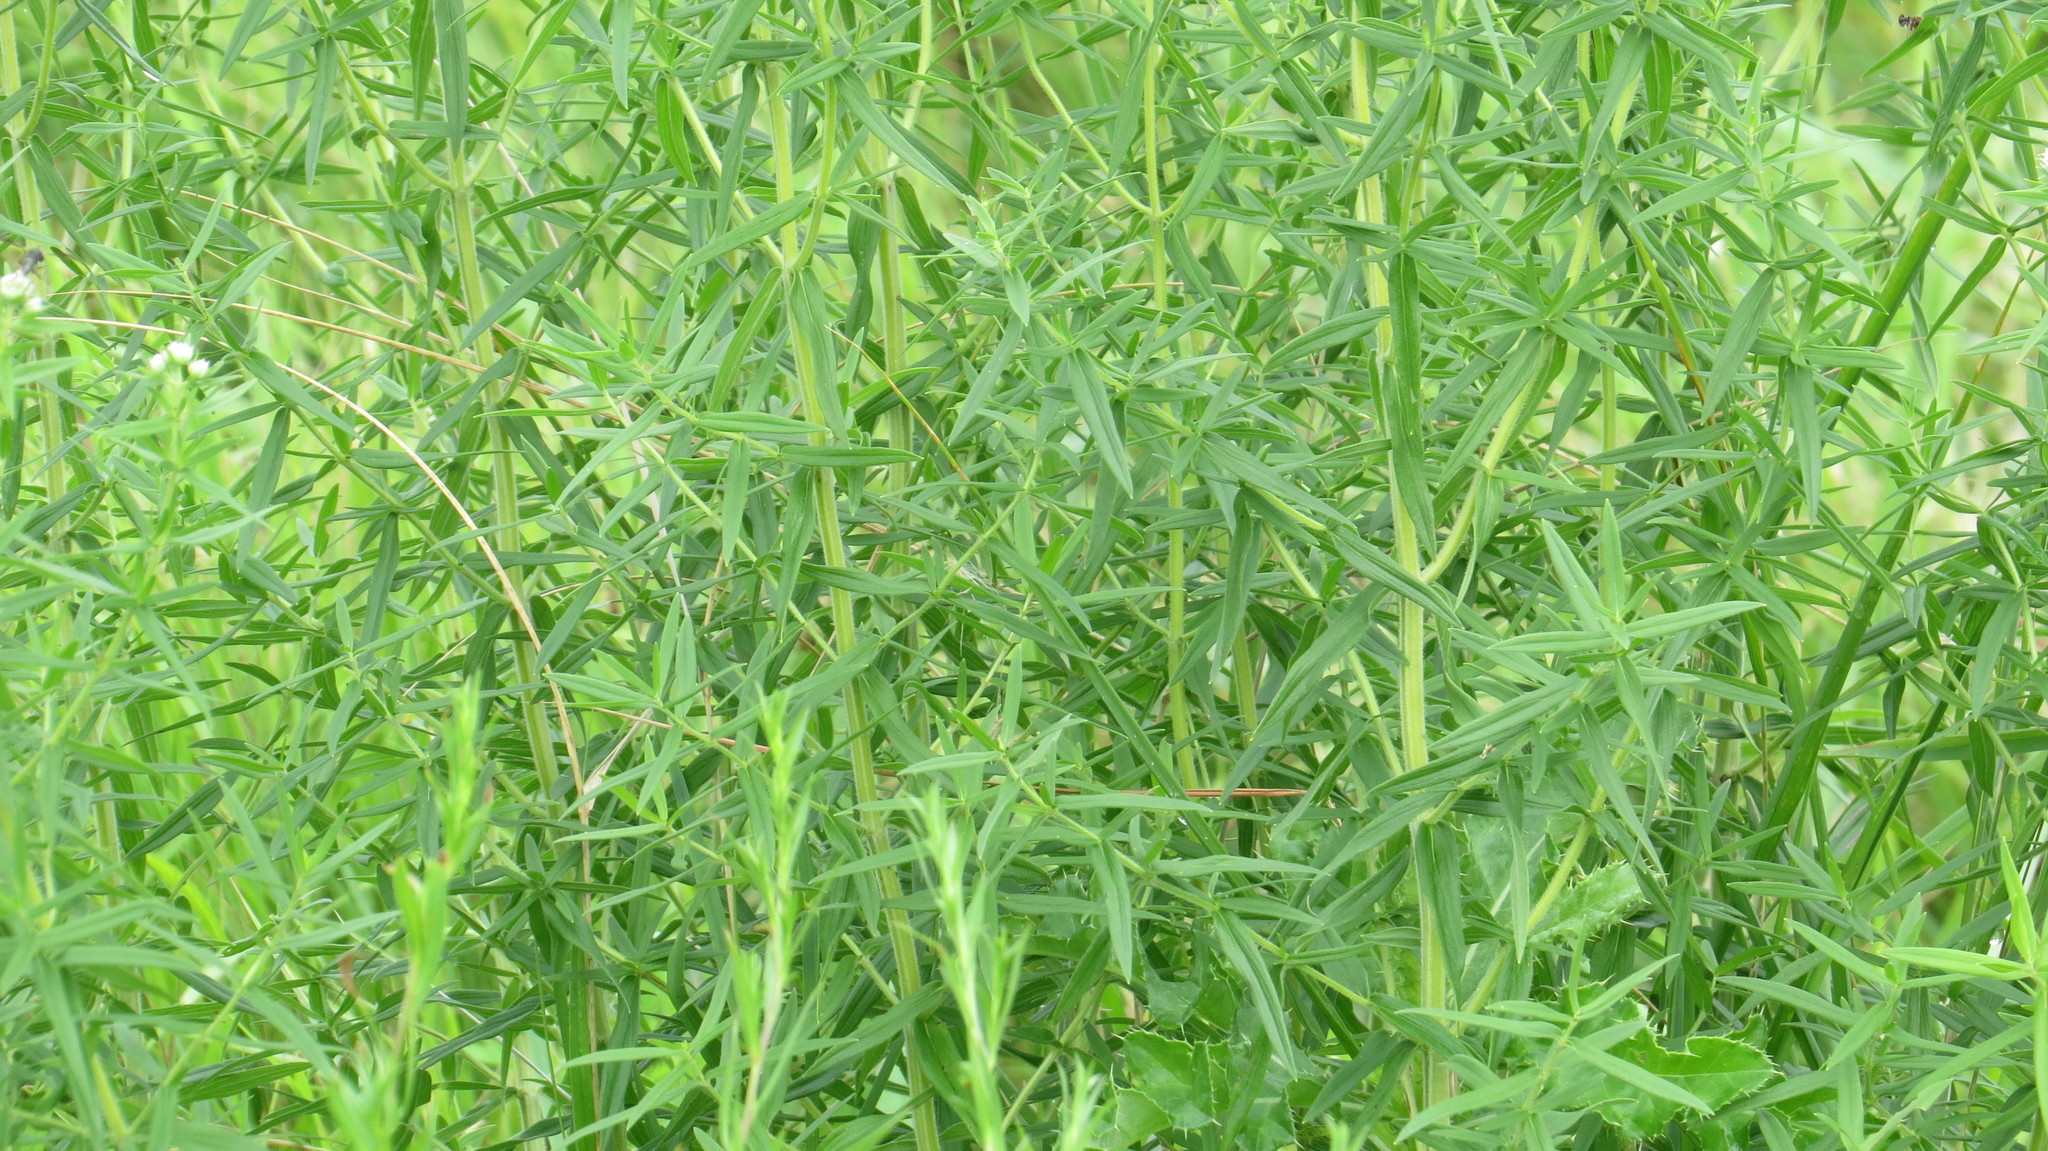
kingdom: Plantae
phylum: Tracheophyta
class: Magnoliopsida
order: Lamiales
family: Lamiaceae
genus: Pycnanthemum
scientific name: Pycnanthemum virginianum
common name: Virginia mountain-mint
